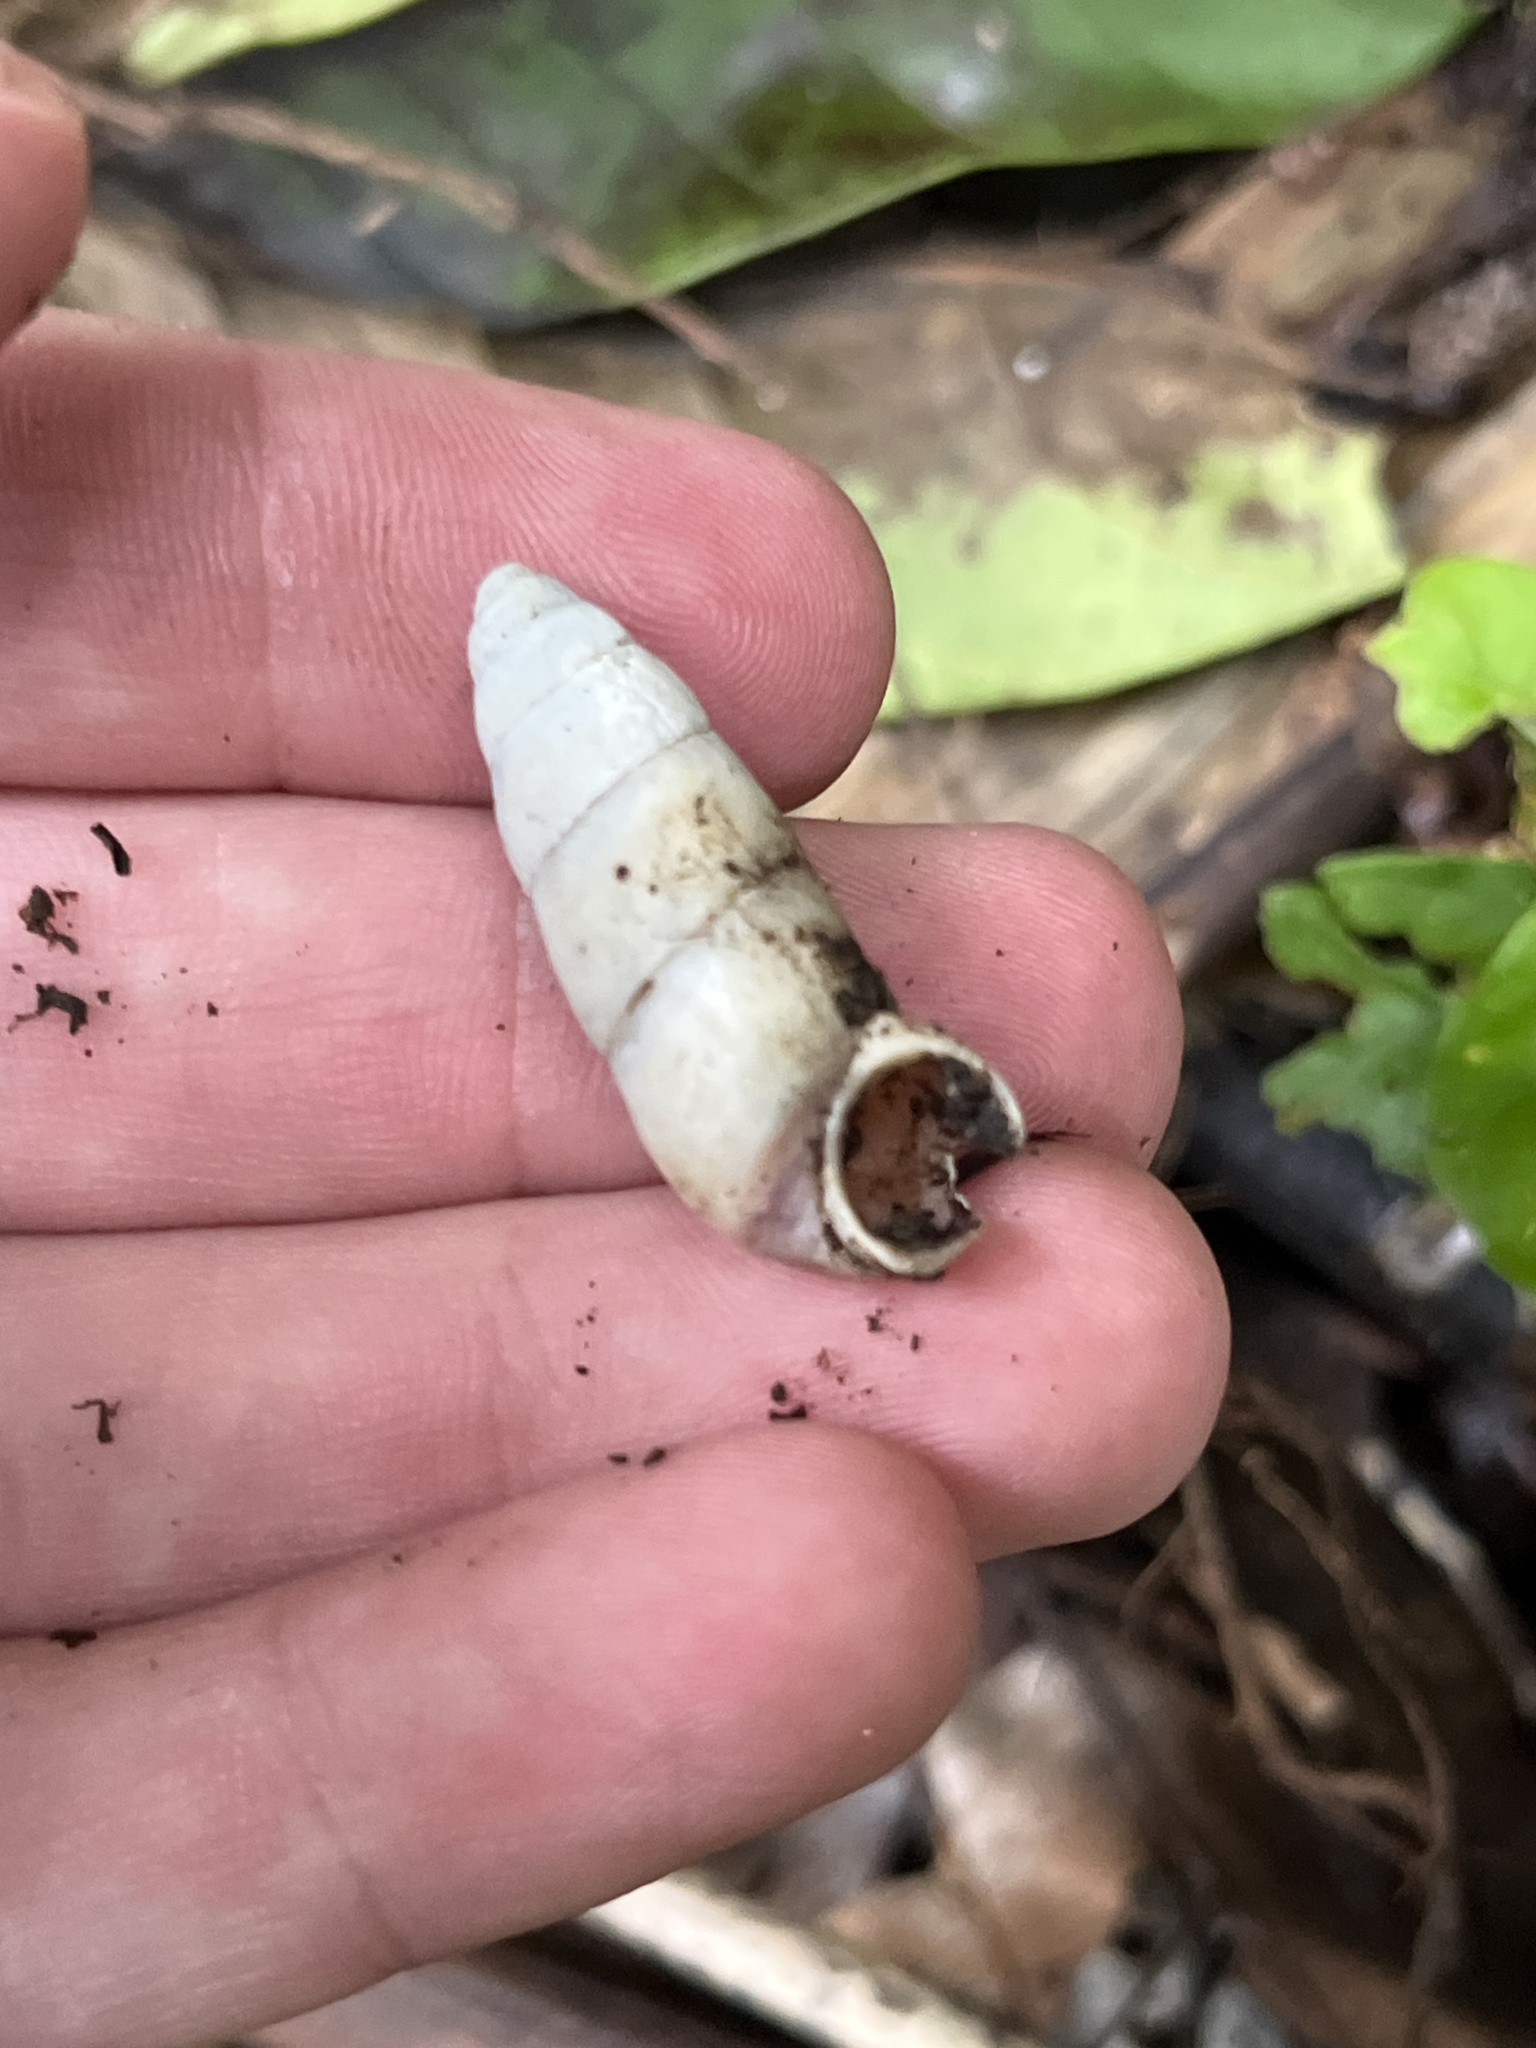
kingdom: Animalia
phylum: Mollusca
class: Gastropoda
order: Architaenioglossa
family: Megalomastomatidae
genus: Neopupina
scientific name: Neopupina crocea
